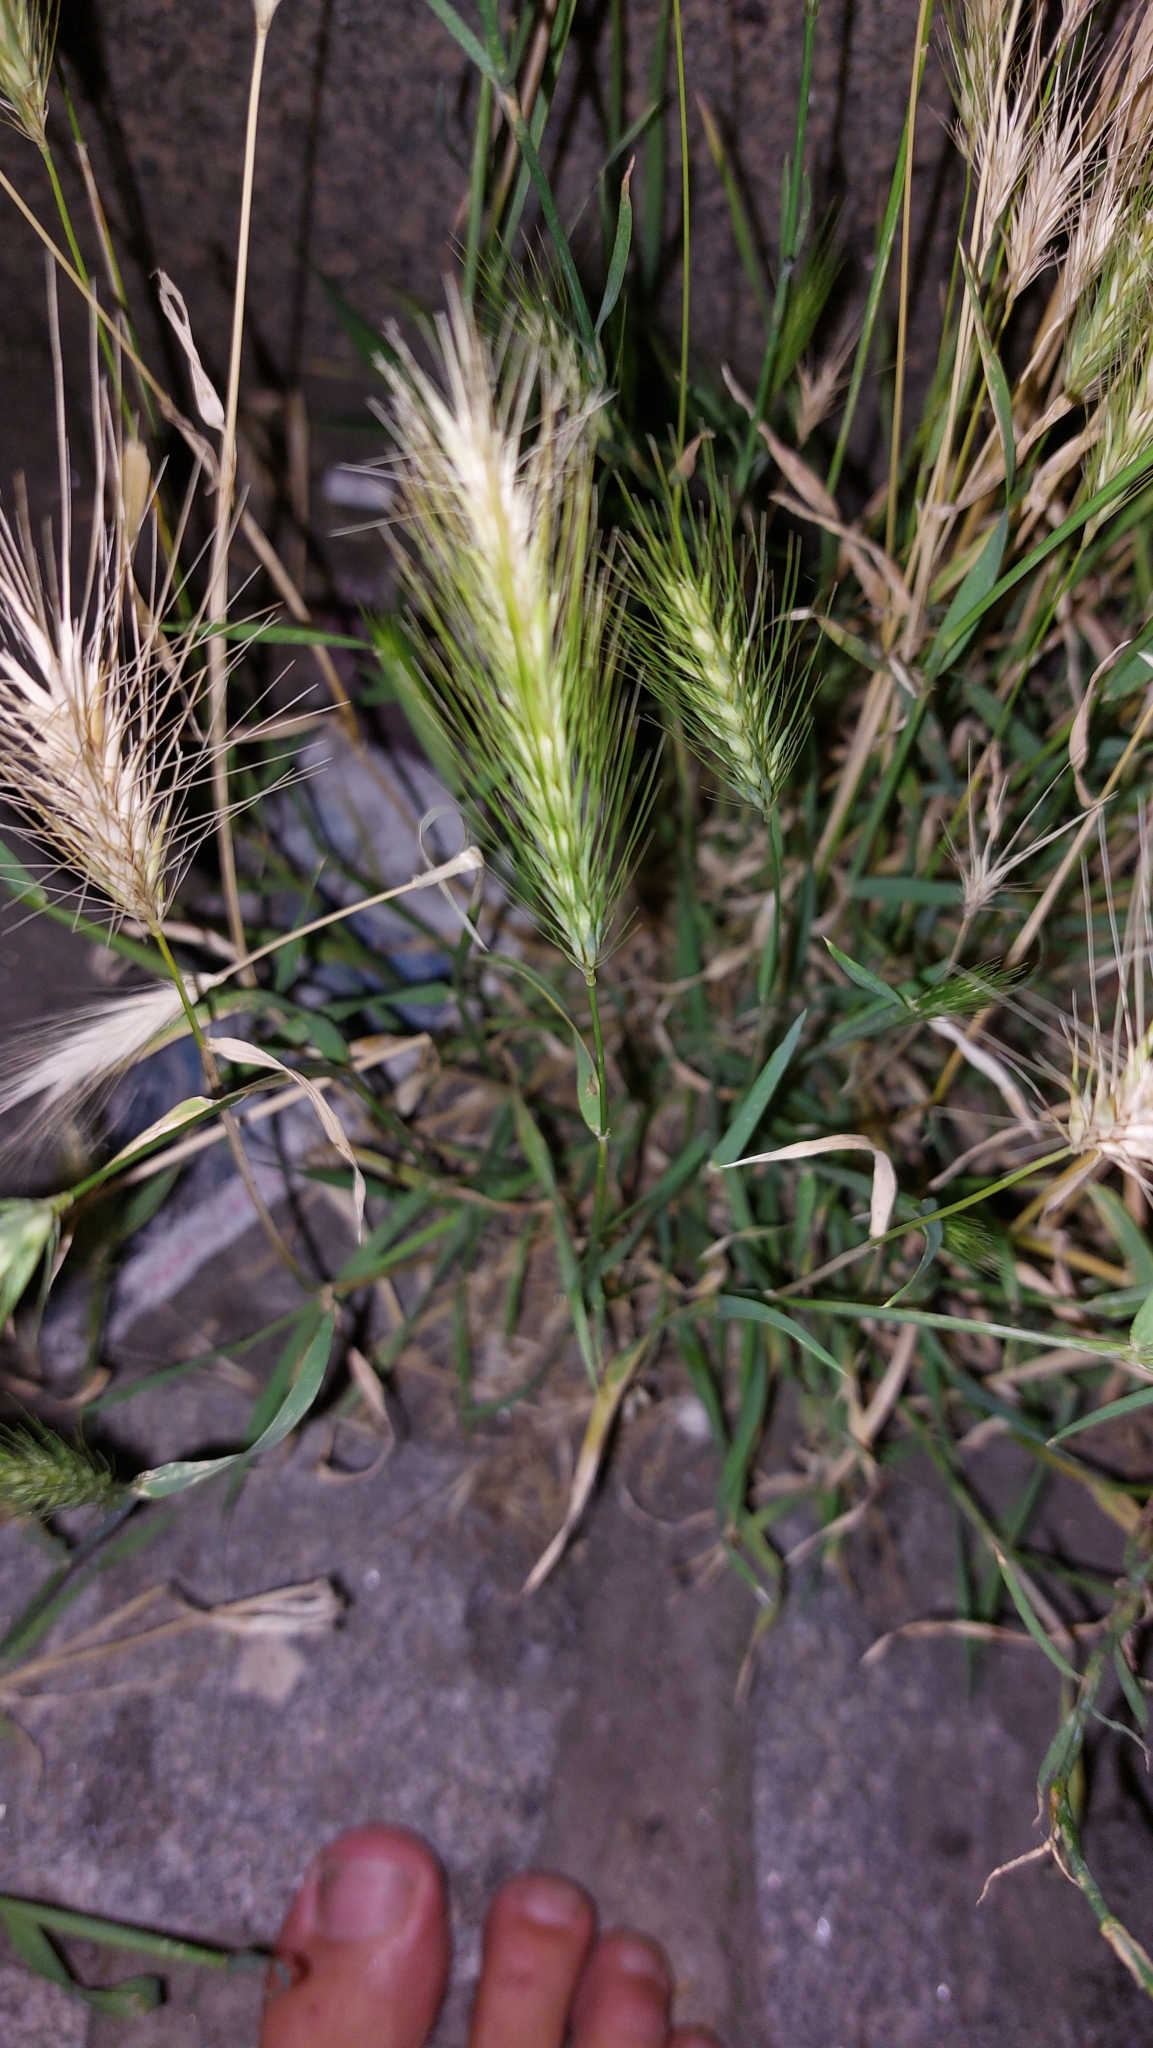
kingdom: Plantae
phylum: Tracheophyta
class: Liliopsida
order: Poales
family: Poaceae
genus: Hordeum
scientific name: Hordeum murinum
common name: Wall barley
